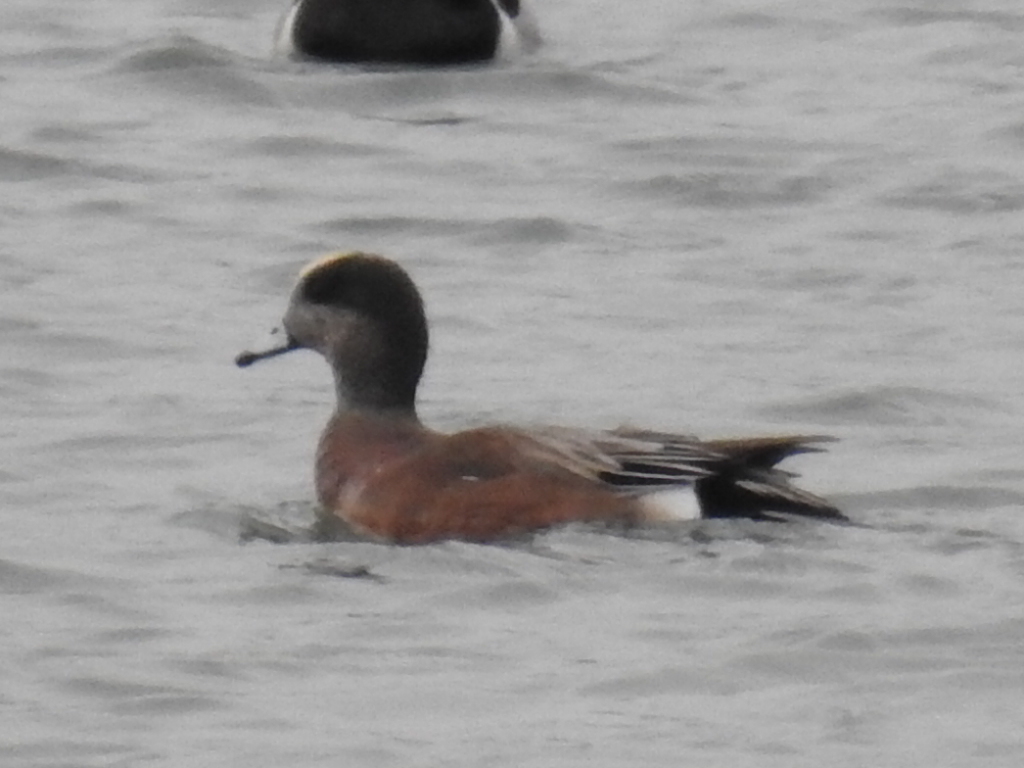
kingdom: Animalia
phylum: Chordata
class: Aves
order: Anseriformes
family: Anatidae
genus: Mareca
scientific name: Mareca americana
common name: American wigeon
